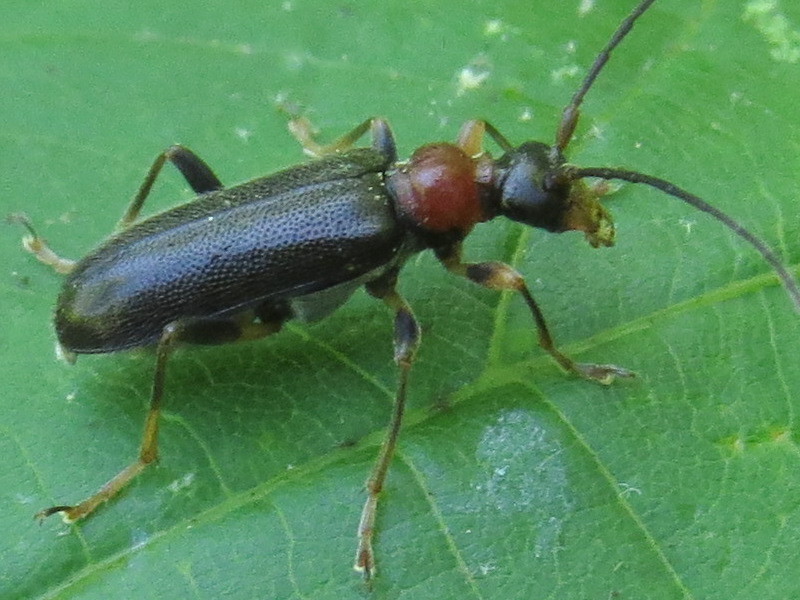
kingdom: Animalia
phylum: Arthropoda
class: Insecta
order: Coleoptera
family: Cerambycidae
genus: Pidonia
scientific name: Pidonia ruficollis
